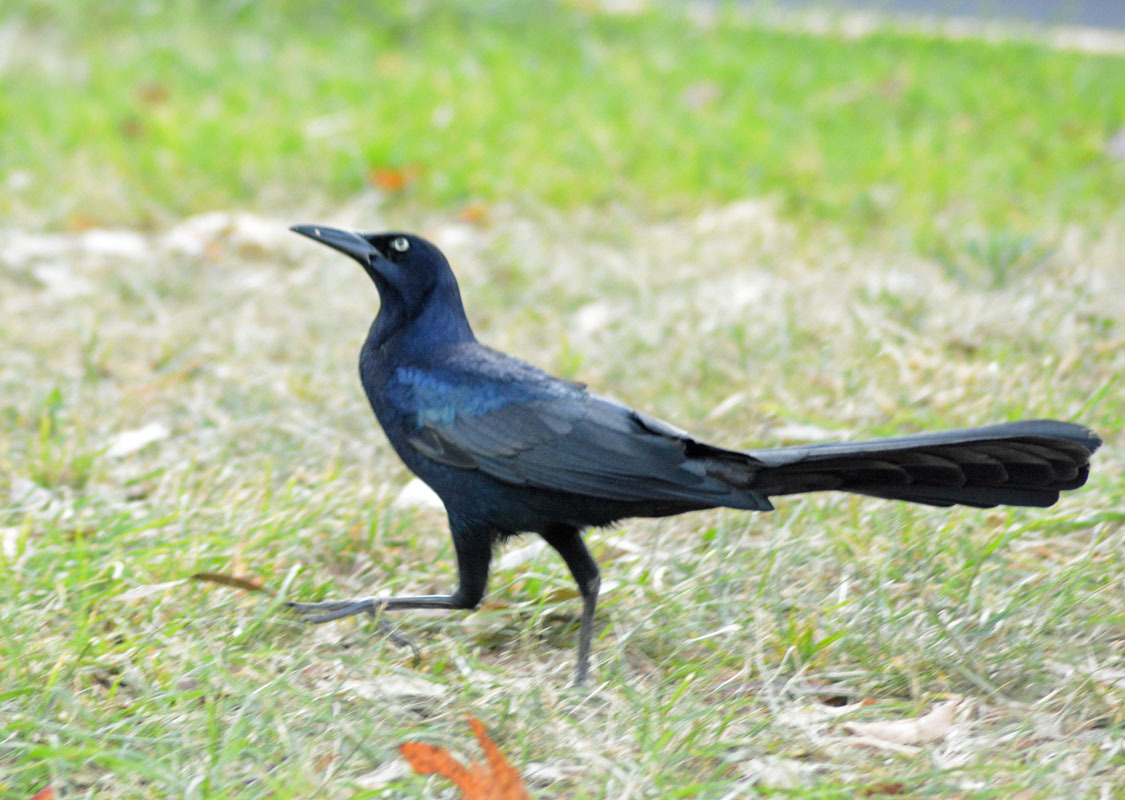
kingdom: Animalia
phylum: Chordata
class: Aves
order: Passeriformes
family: Icteridae
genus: Quiscalus
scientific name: Quiscalus mexicanus
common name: Great-tailed grackle
